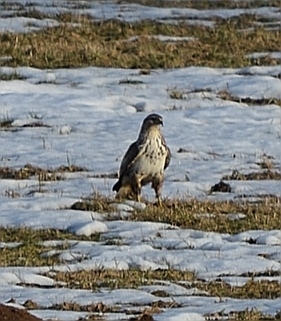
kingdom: Animalia
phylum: Chordata
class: Aves
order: Accipitriformes
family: Accipitridae
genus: Buteo
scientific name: Buteo buteo
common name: Common buzzard
